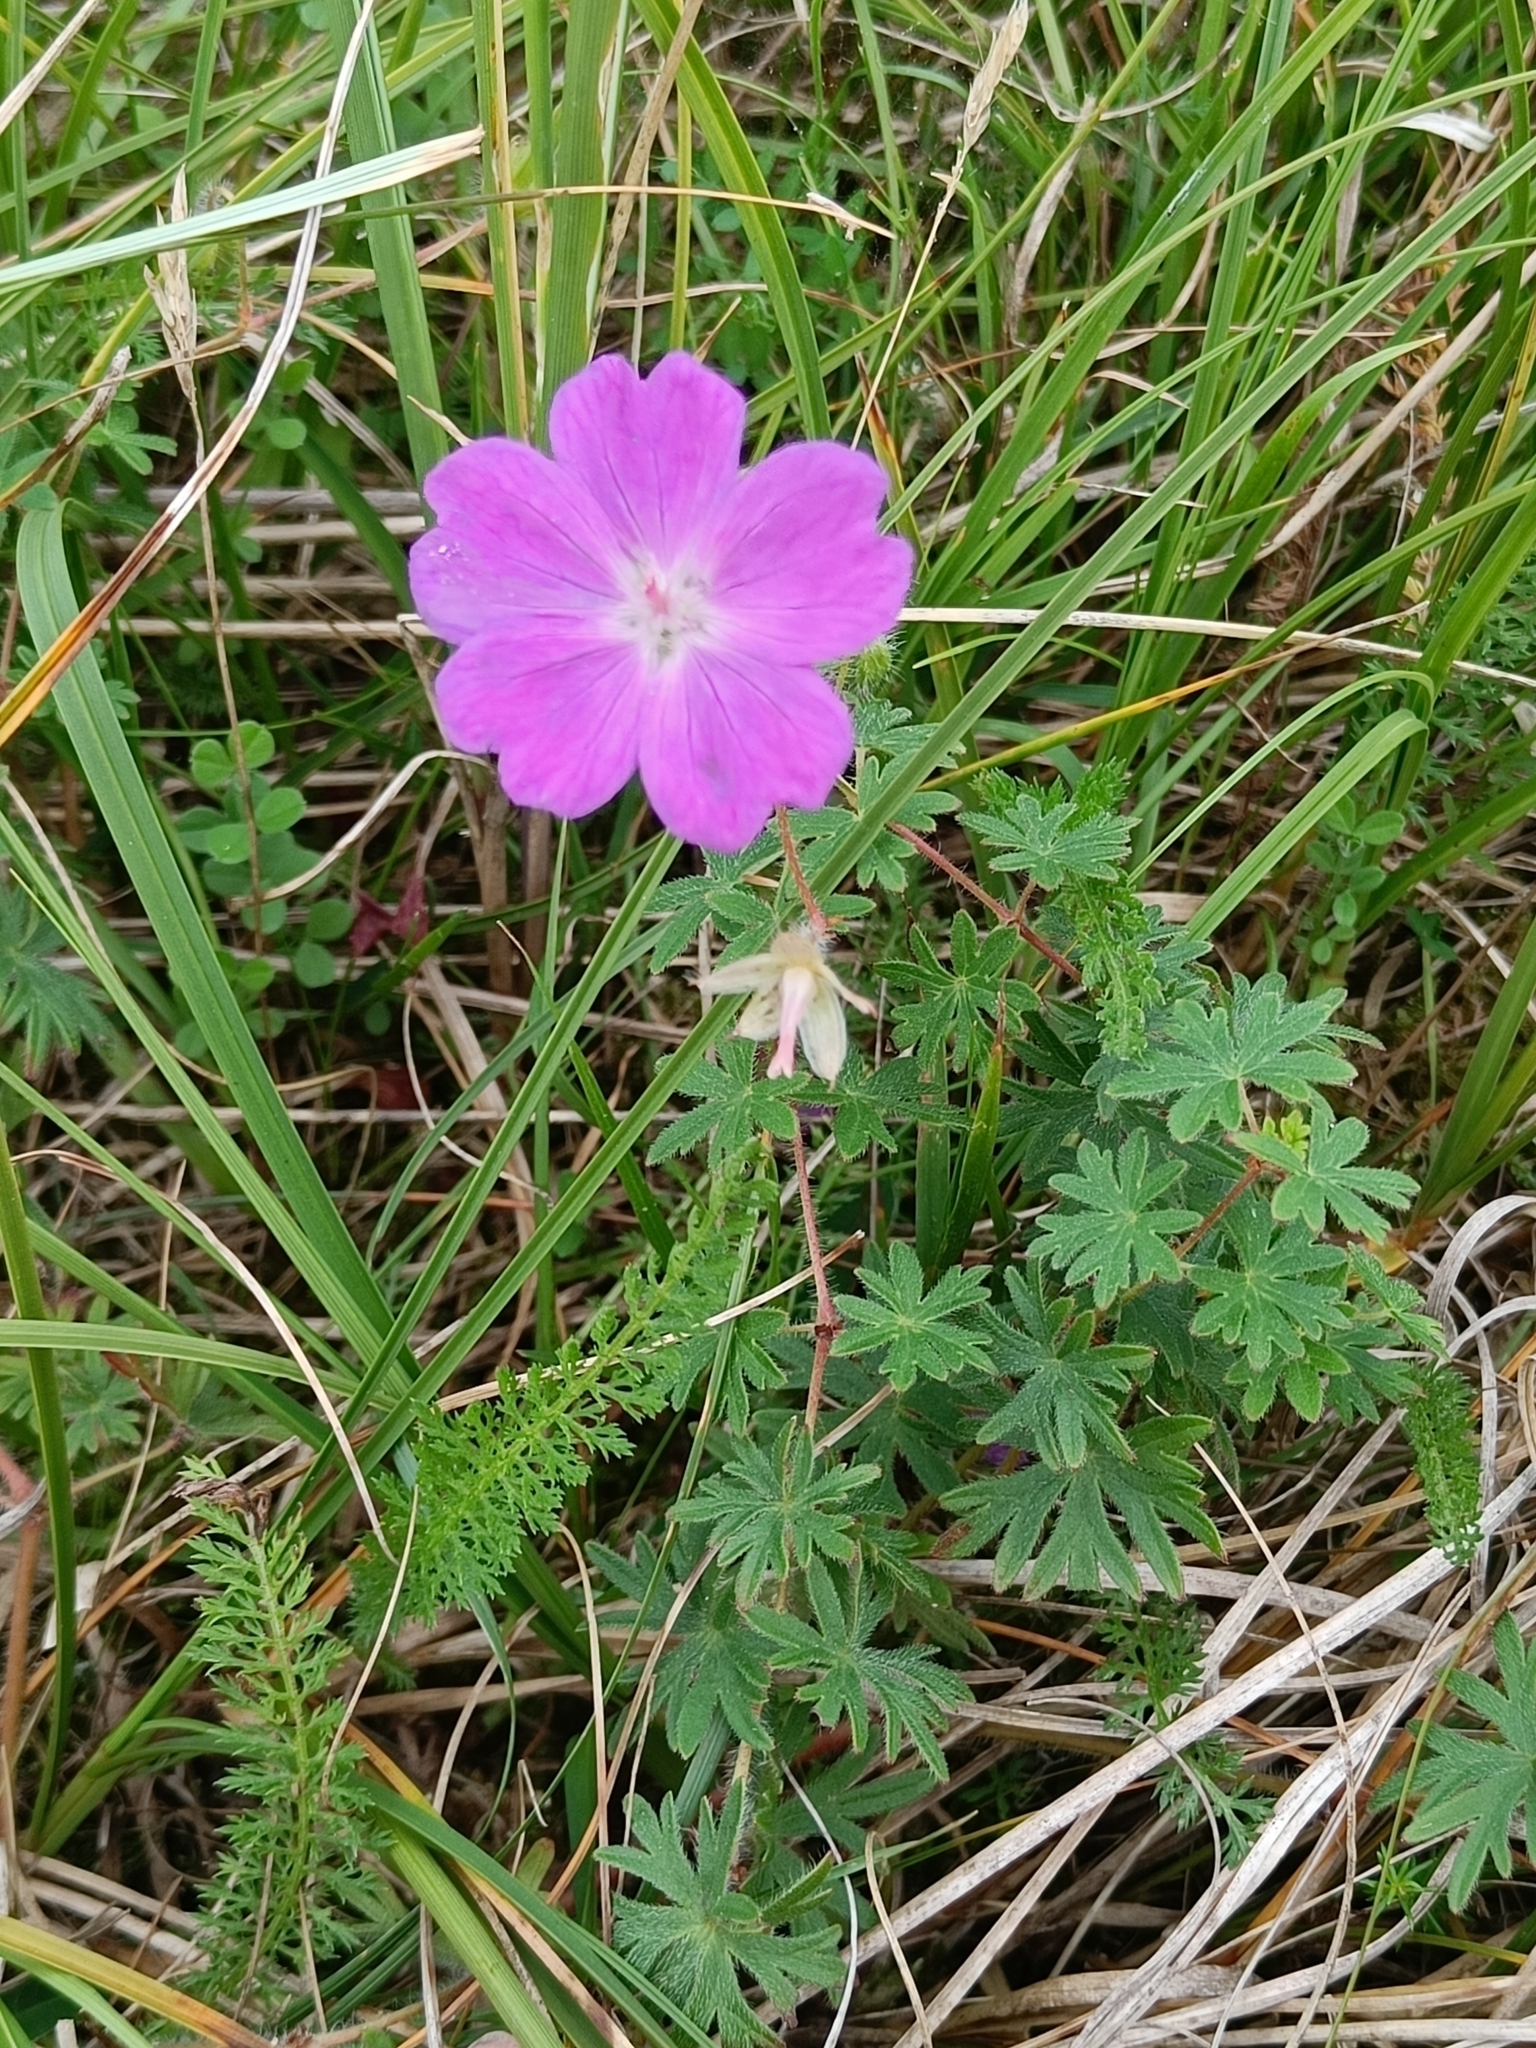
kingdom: Plantae
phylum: Tracheophyta
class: Magnoliopsida
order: Geraniales
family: Geraniaceae
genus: Geranium
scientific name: Geranium sanguineum
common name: Bloody crane's-bill
